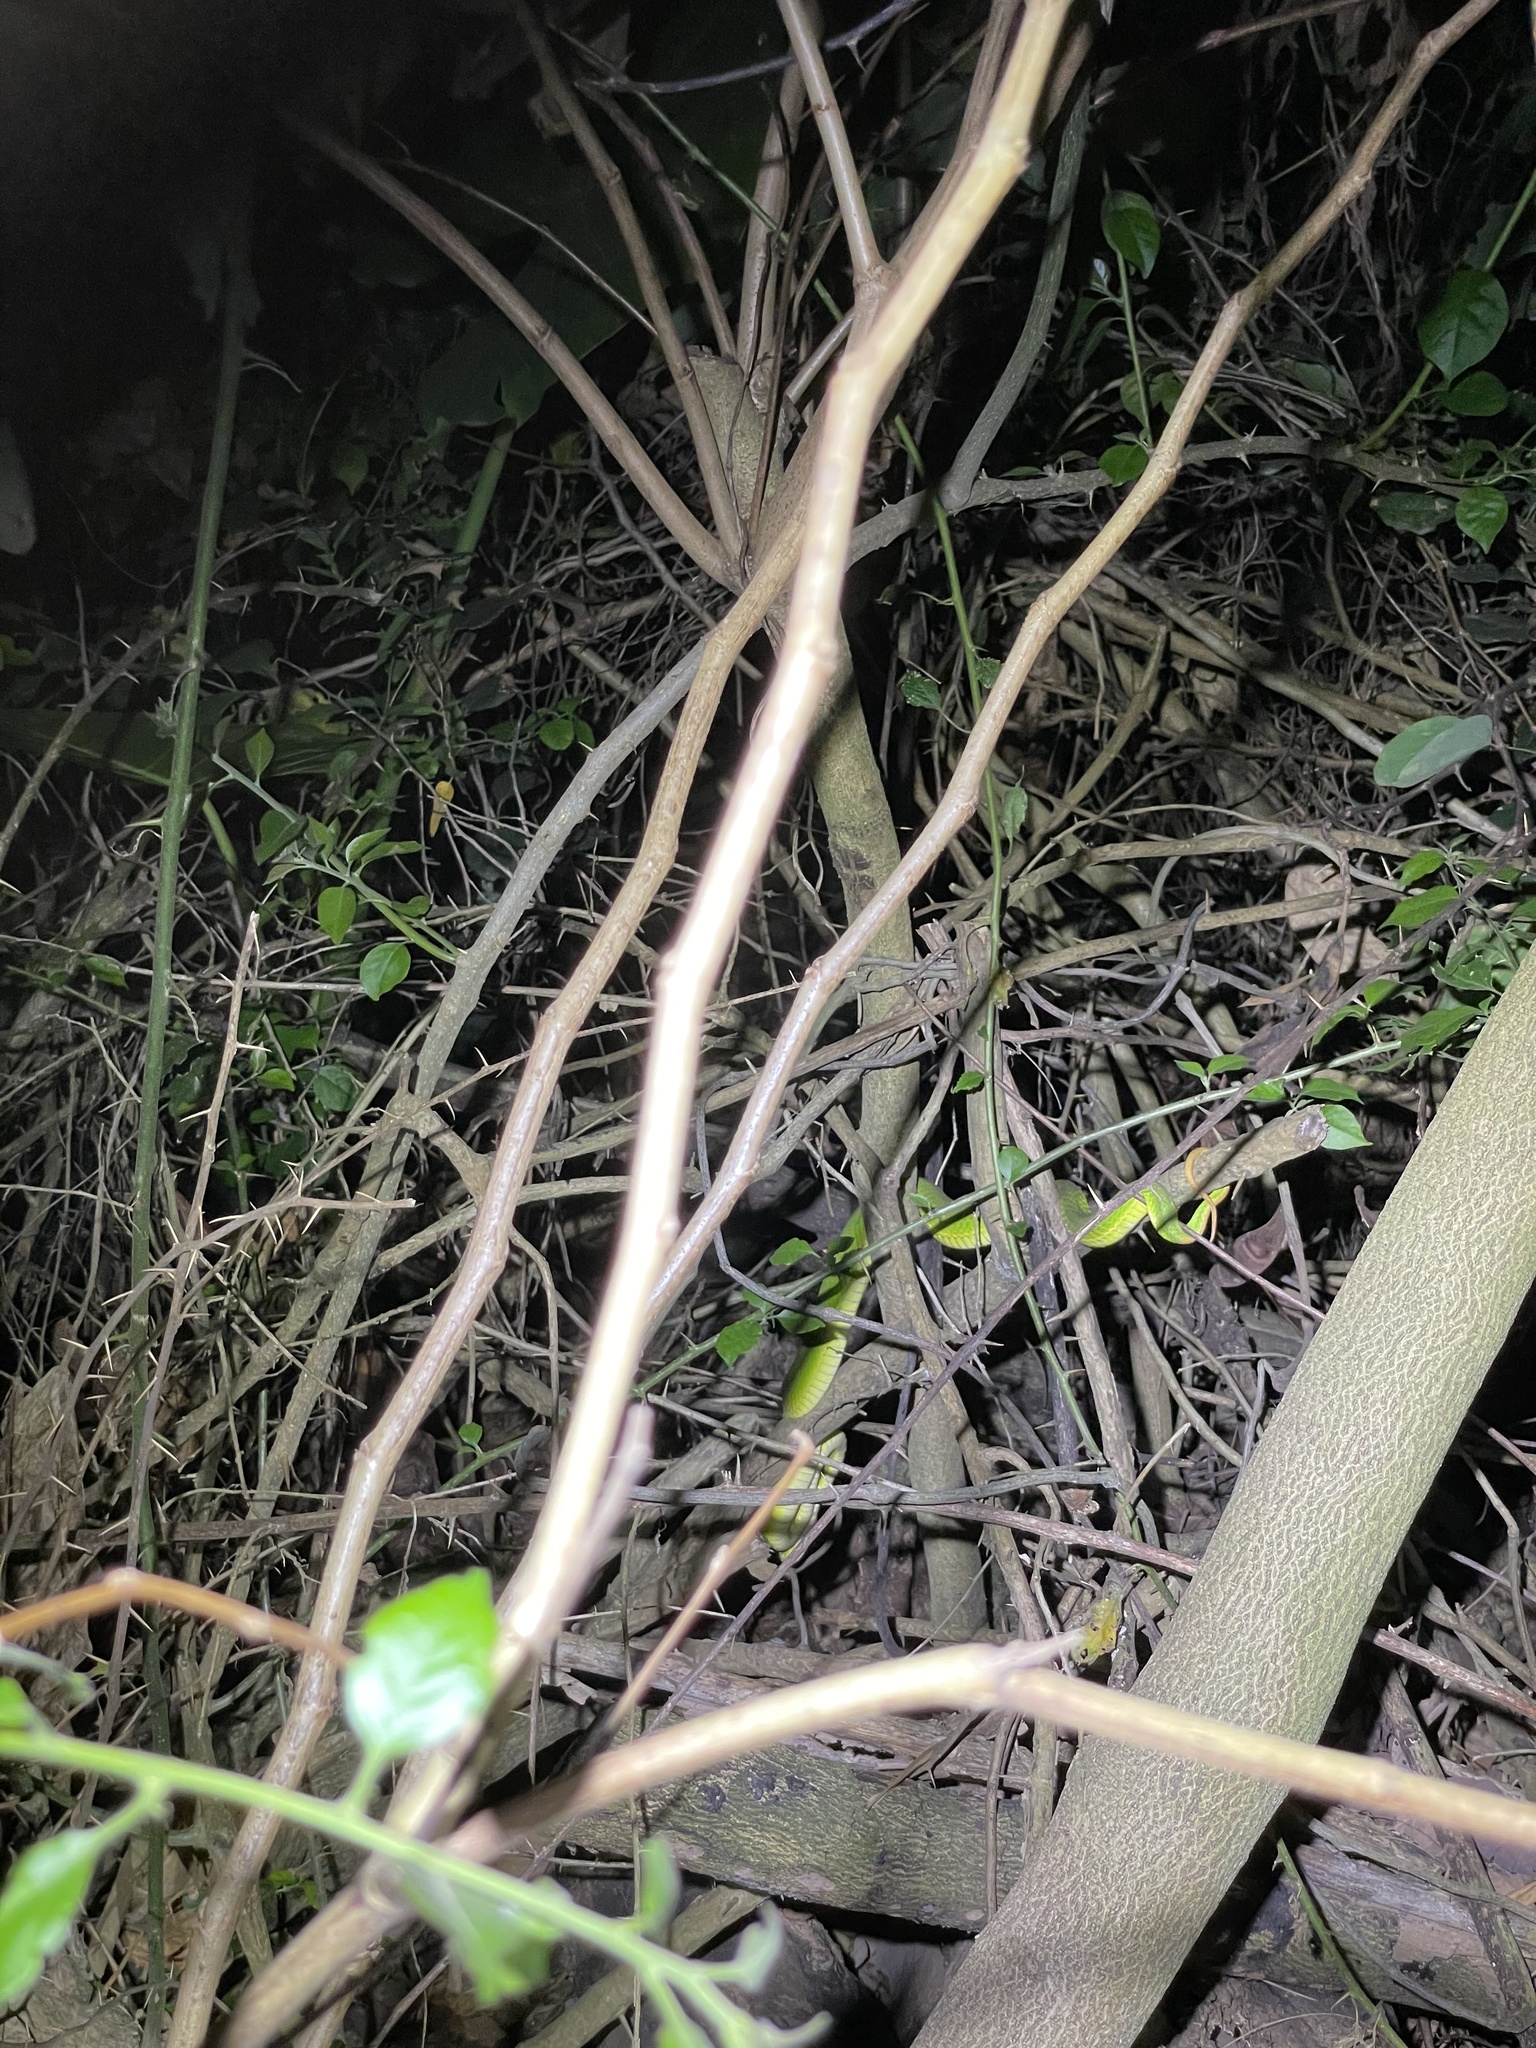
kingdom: Animalia
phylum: Chordata
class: Squamata
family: Viperidae
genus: Trimeresurus
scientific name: Trimeresurus albolabris
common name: White-lipped pitviper
